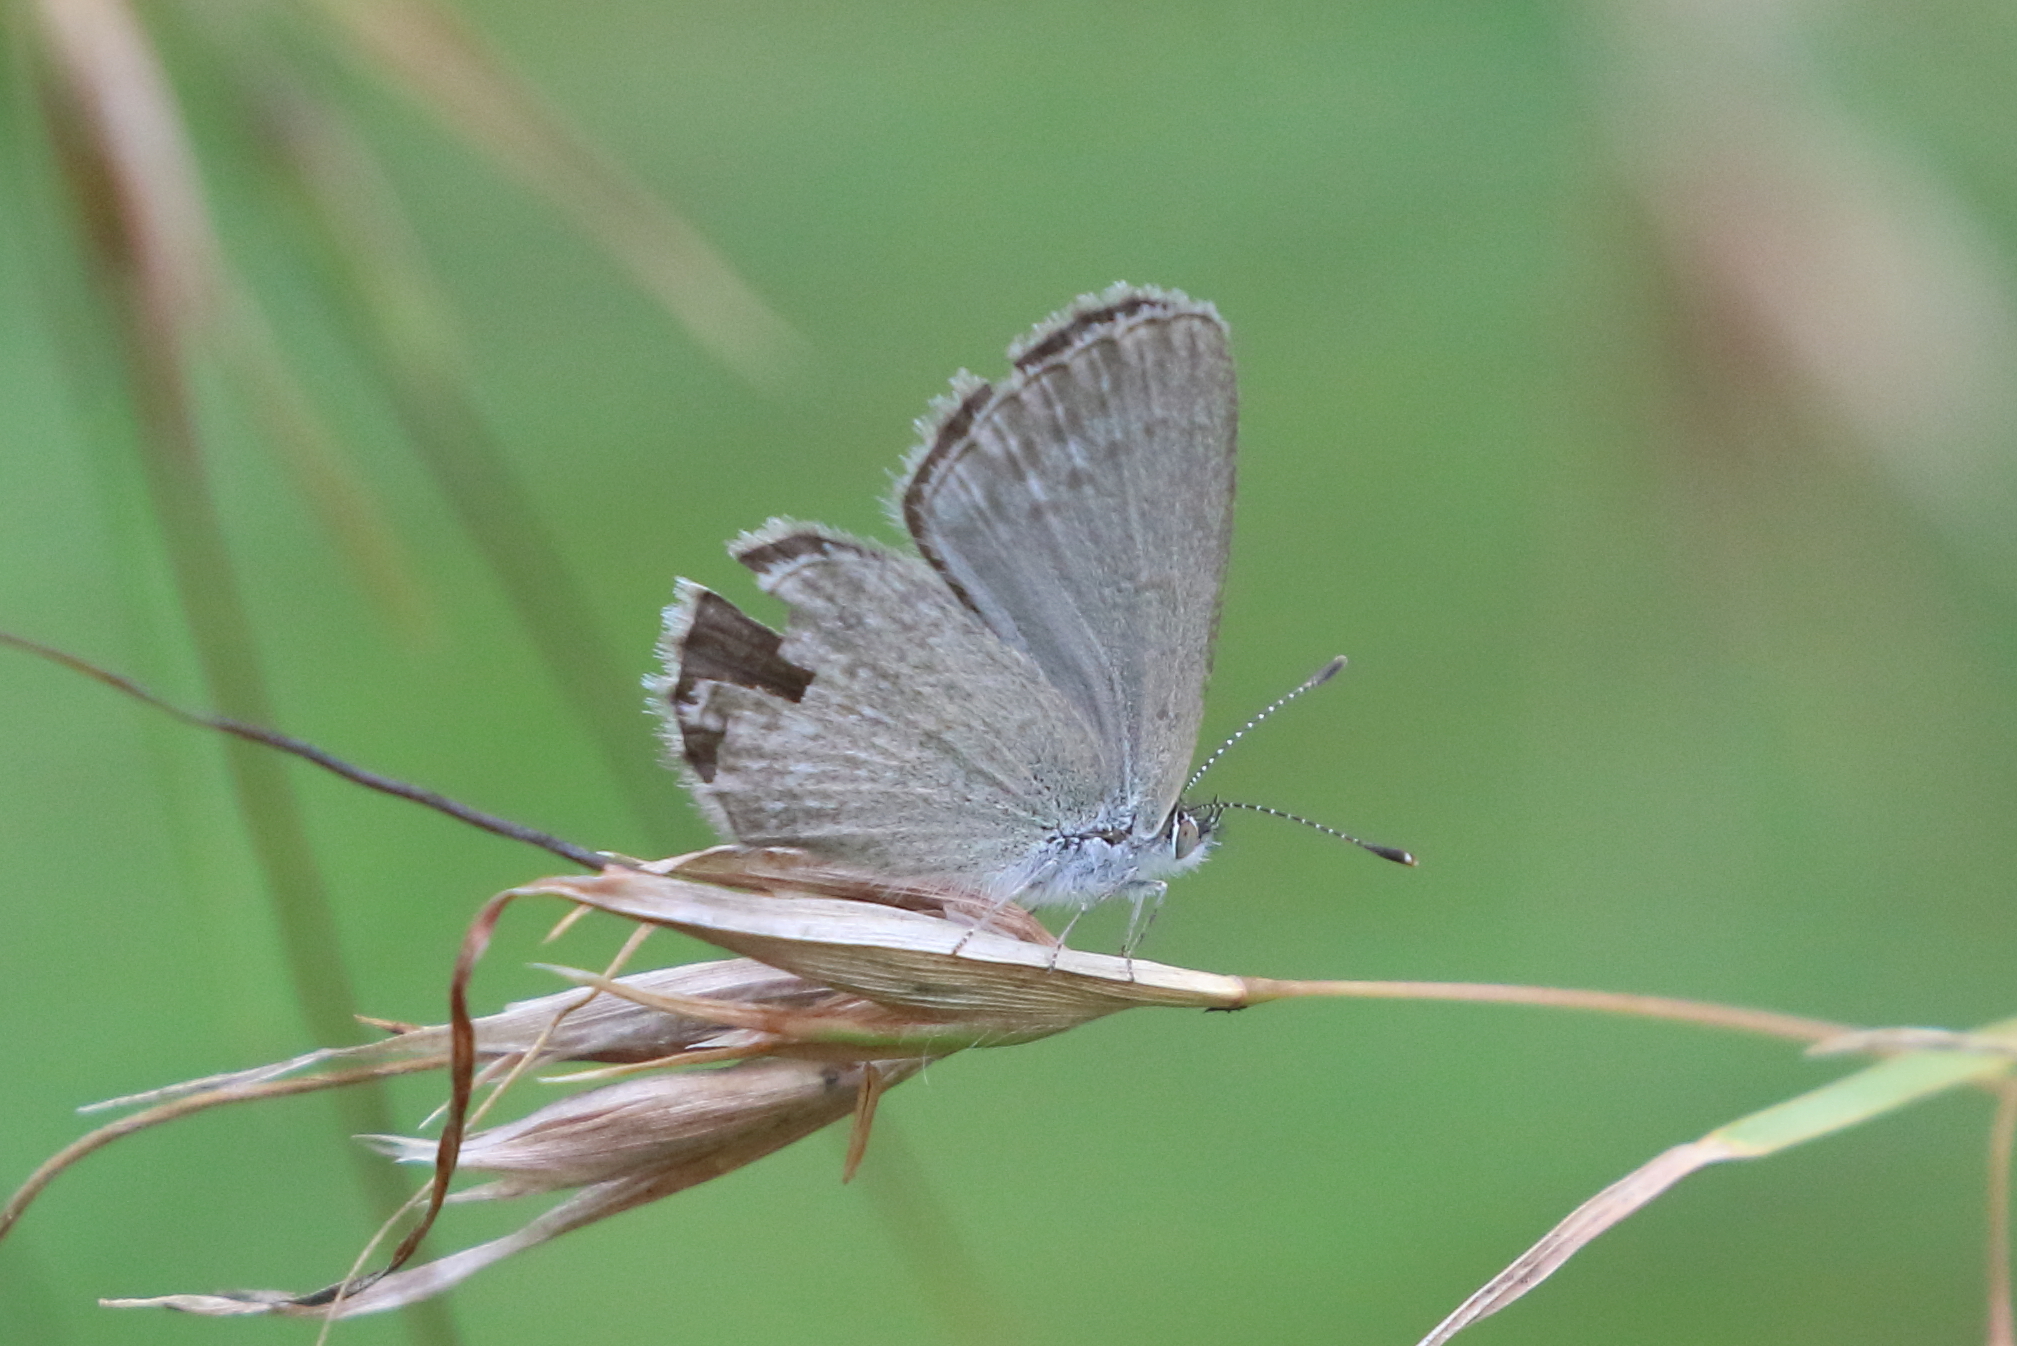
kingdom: Animalia
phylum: Arthropoda
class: Insecta
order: Lepidoptera
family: Lycaenidae
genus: Zizina
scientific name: Zizina labradus
